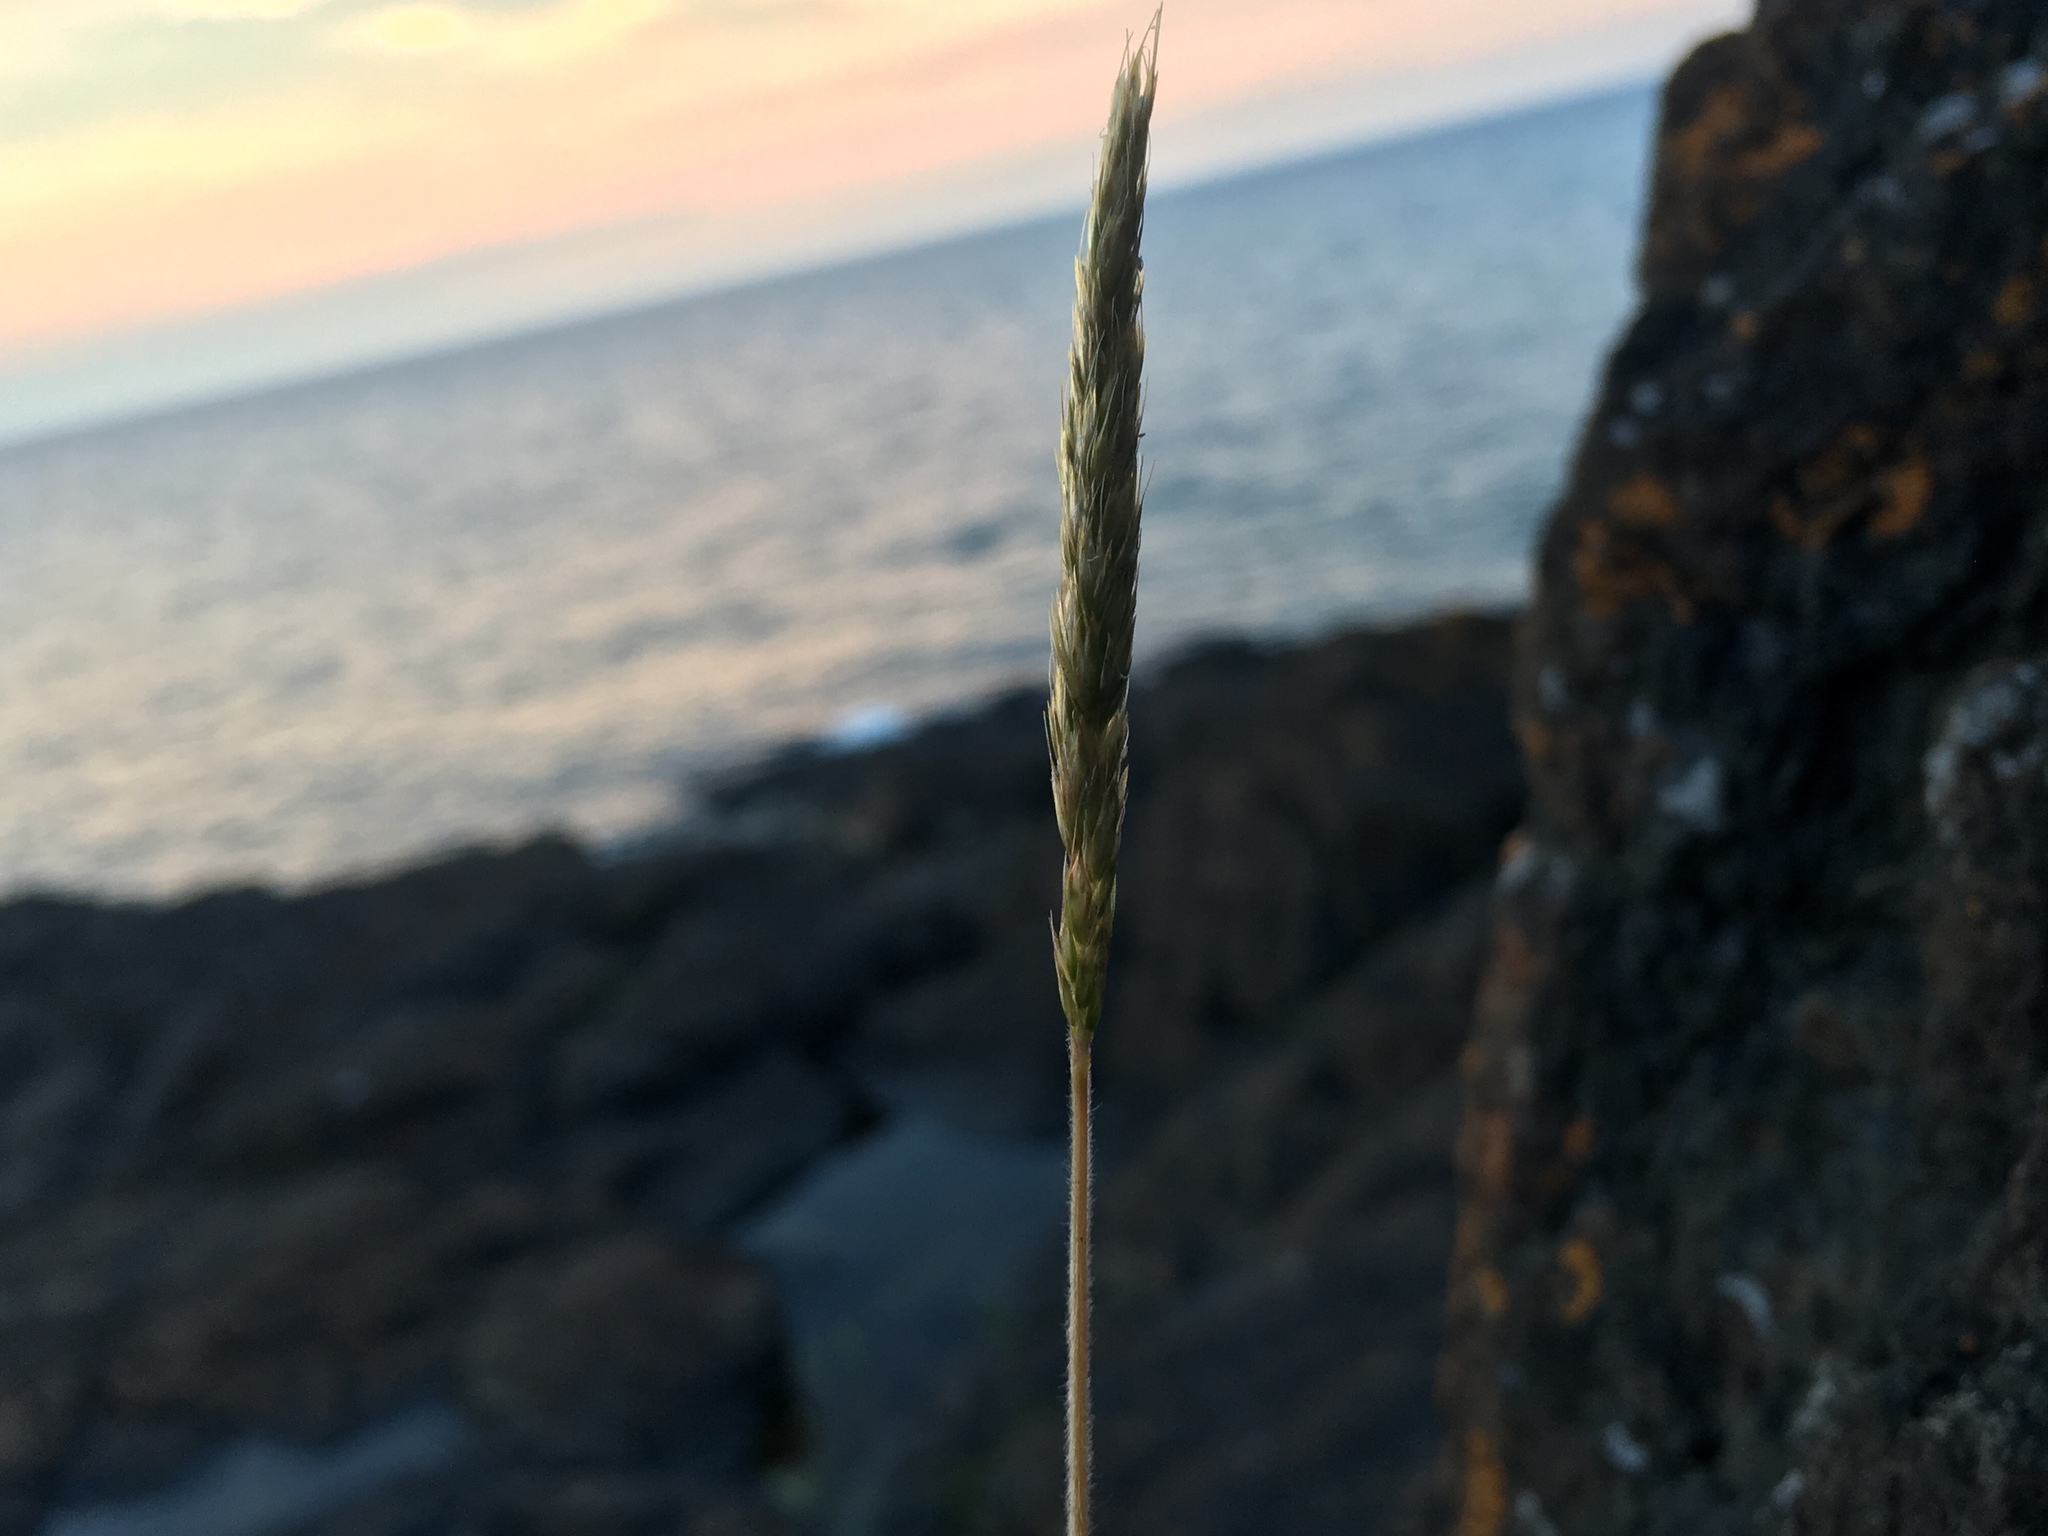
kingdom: Plantae
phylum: Tracheophyta
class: Liliopsida
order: Poales
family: Poaceae
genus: Koeleria
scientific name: Koeleria spicata
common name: Mountain trisetum
